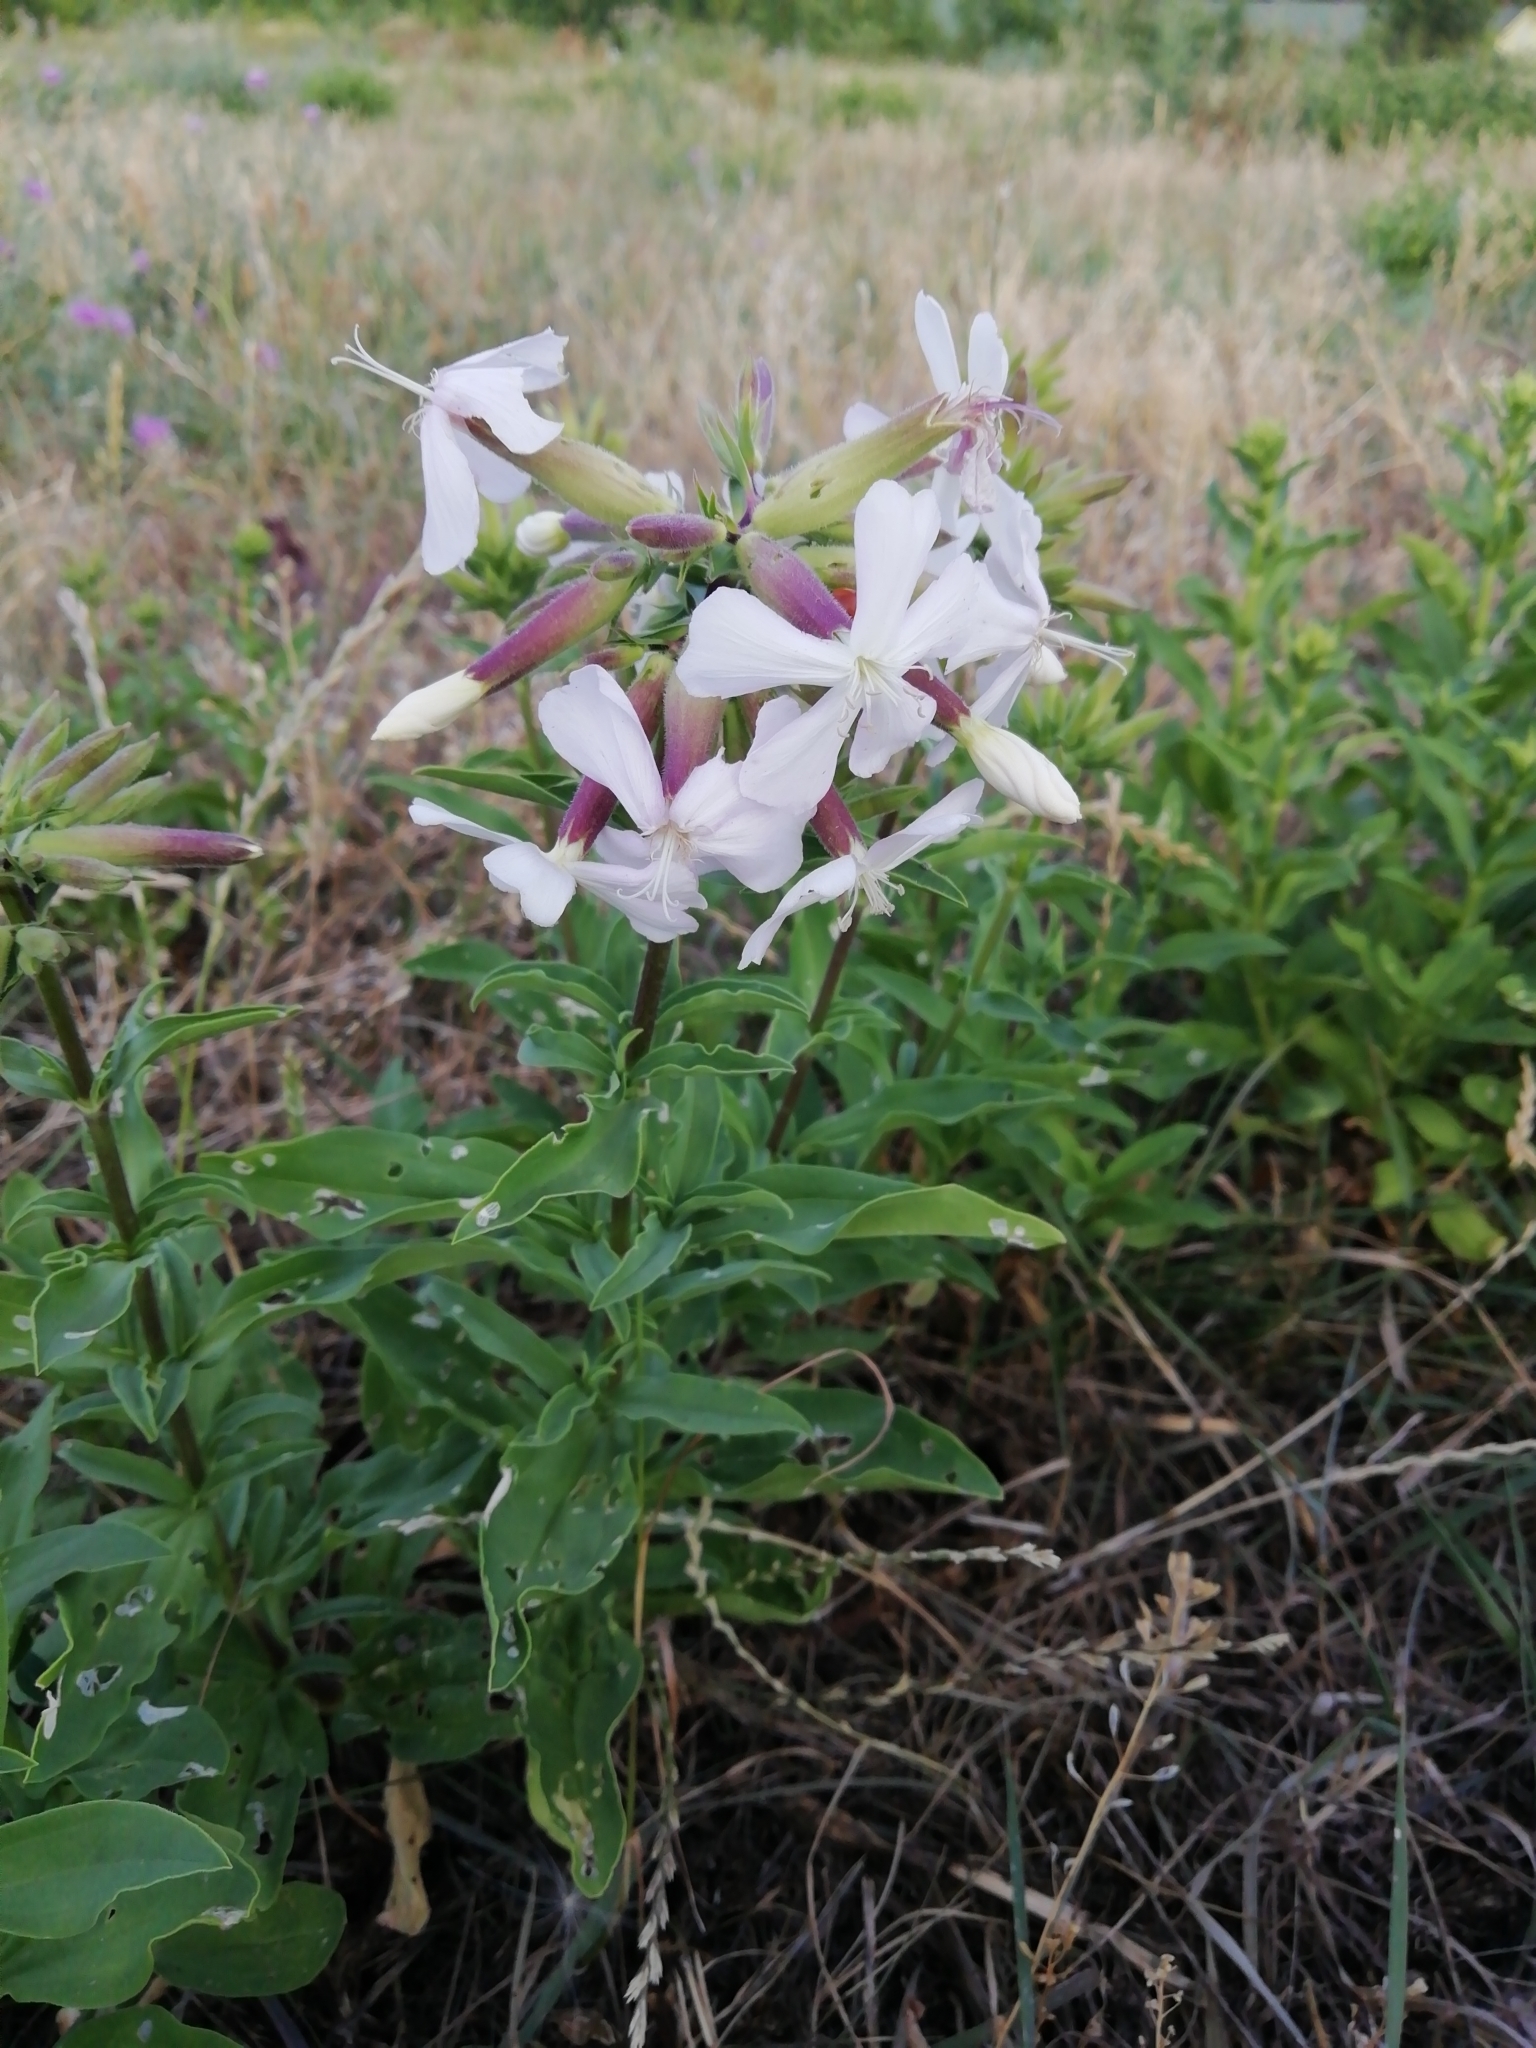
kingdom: Plantae
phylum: Tracheophyta
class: Magnoliopsida
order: Caryophyllales
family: Caryophyllaceae
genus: Saponaria
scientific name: Saponaria officinalis
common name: Soapwort
